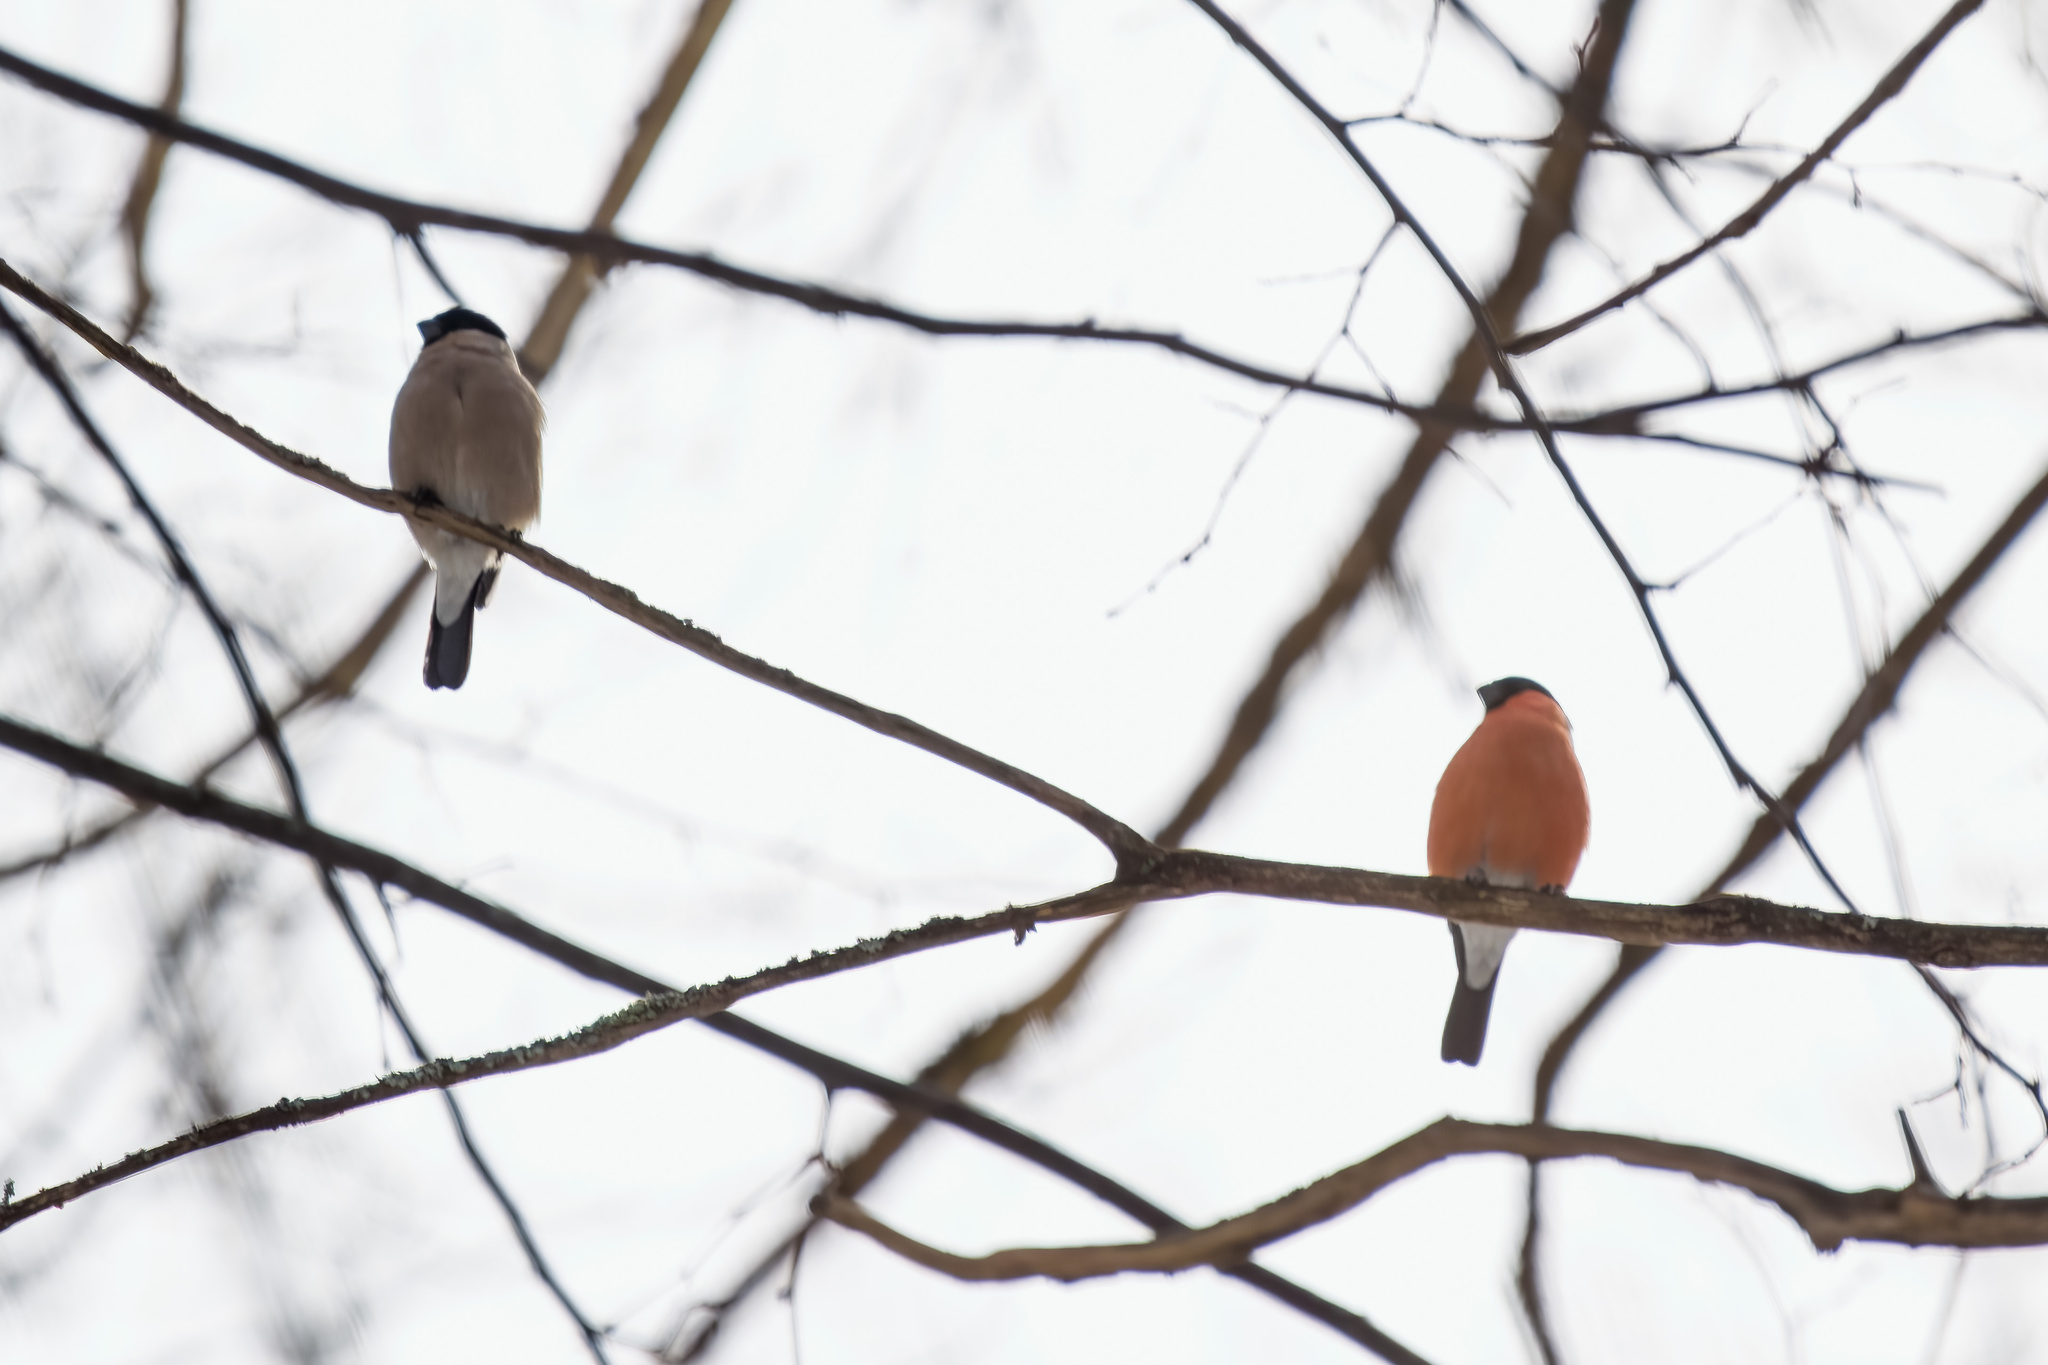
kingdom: Animalia
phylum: Chordata
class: Aves
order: Passeriformes
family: Fringillidae
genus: Pyrrhula
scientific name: Pyrrhula pyrrhula
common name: Eurasian bullfinch
